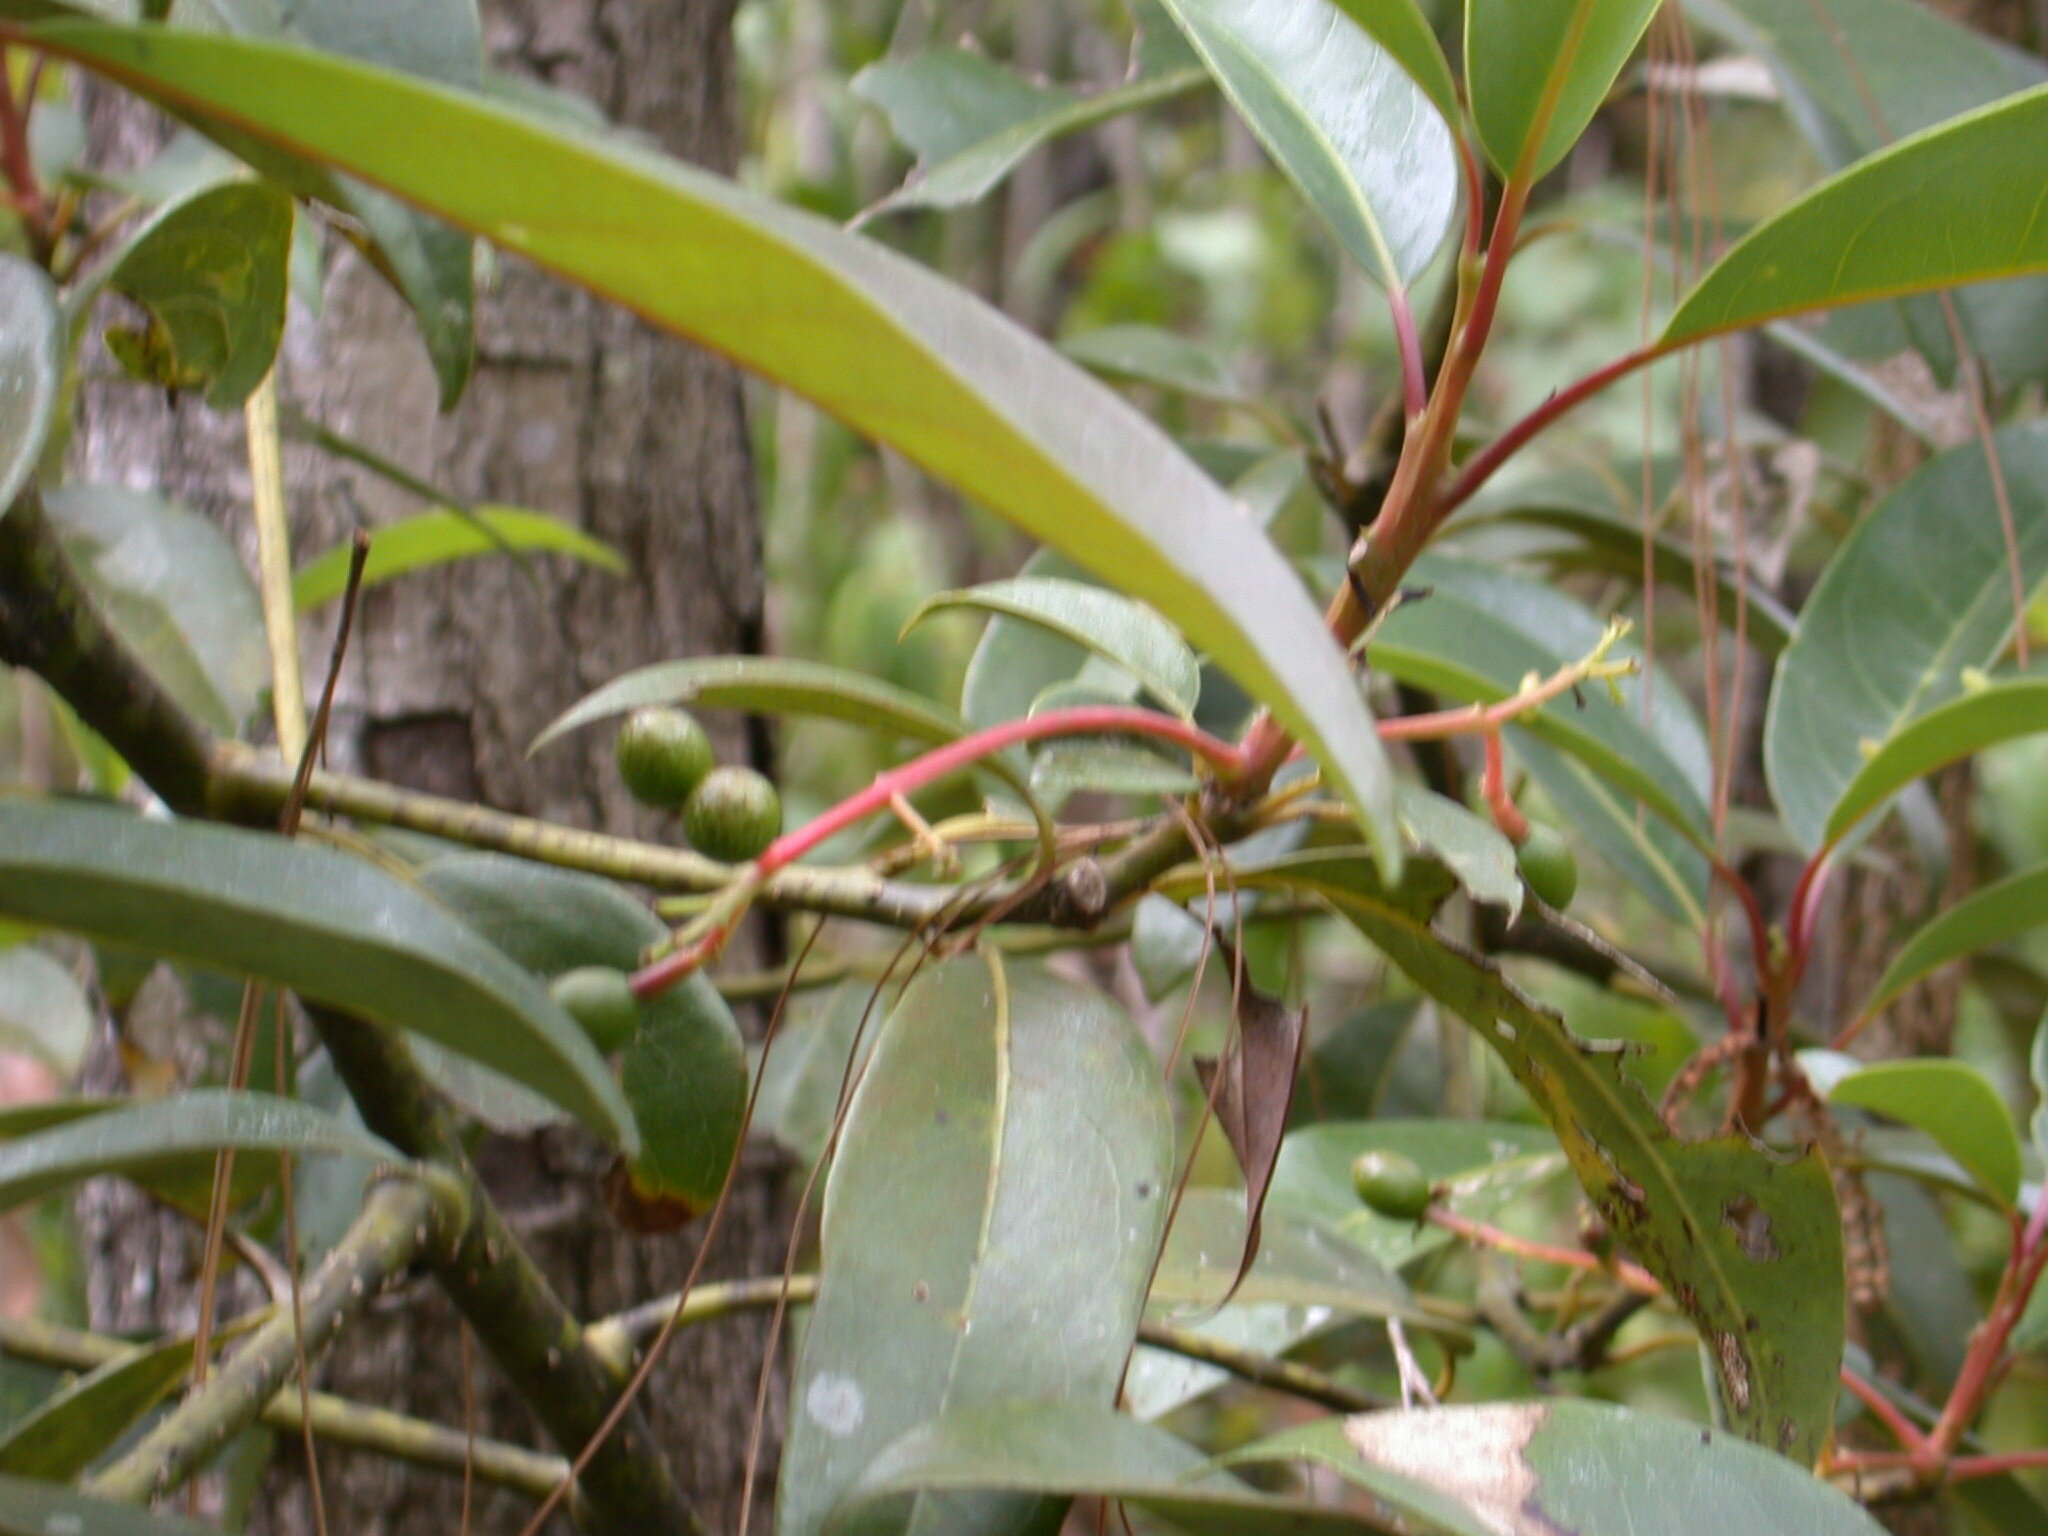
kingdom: Plantae
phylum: Tracheophyta
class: Magnoliopsida
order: Laurales
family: Lauraceae
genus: Persea
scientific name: Persea liebmannii
